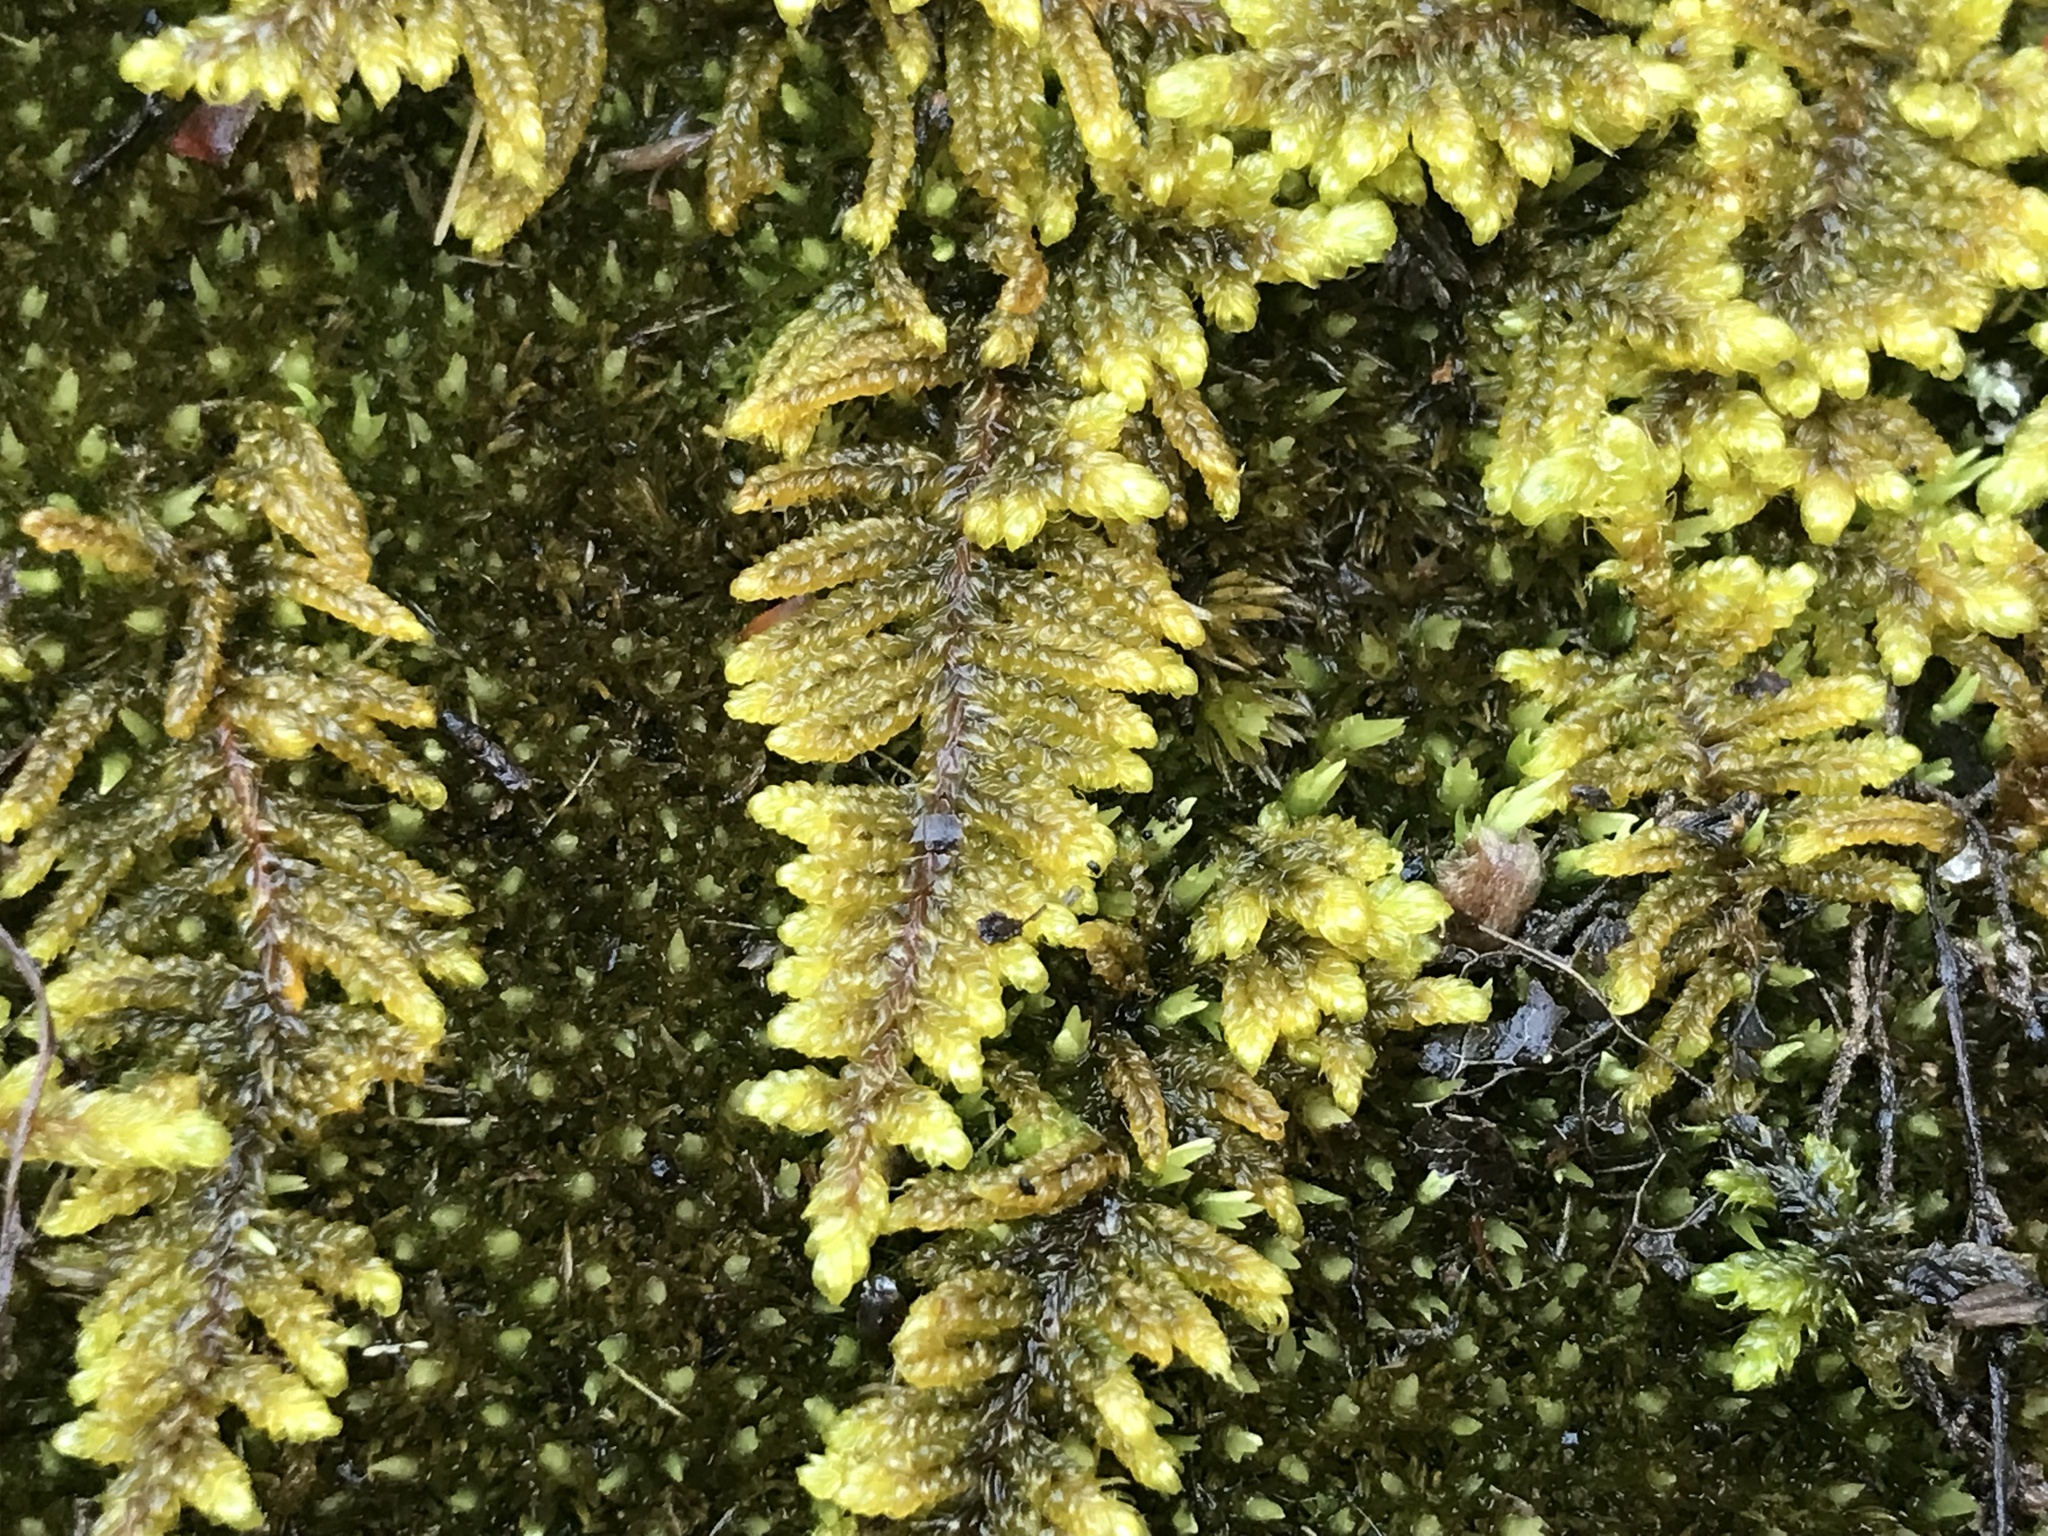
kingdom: Plantae
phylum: Bryophyta
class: Bryopsida
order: Hypnales
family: Callicladiaceae
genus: Callicladium
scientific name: Callicladium imponens
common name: Brocade moss
